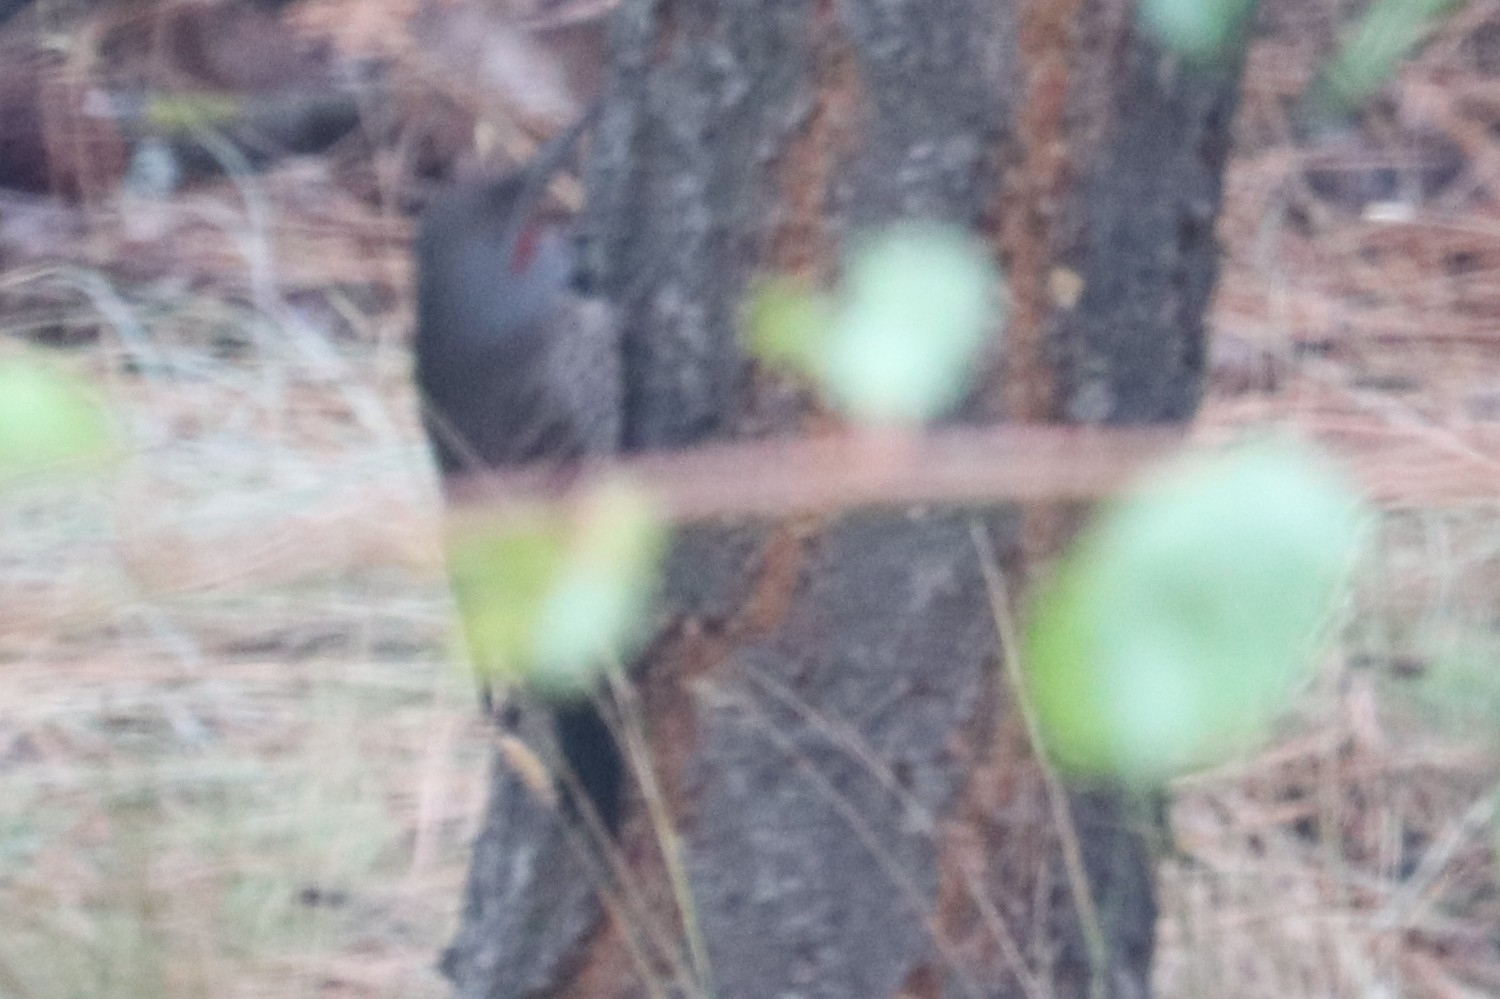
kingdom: Animalia
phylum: Chordata
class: Aves
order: Piciformes
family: Picidae
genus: Colaptes
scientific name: Colaptes auratus
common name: Northern flicker
